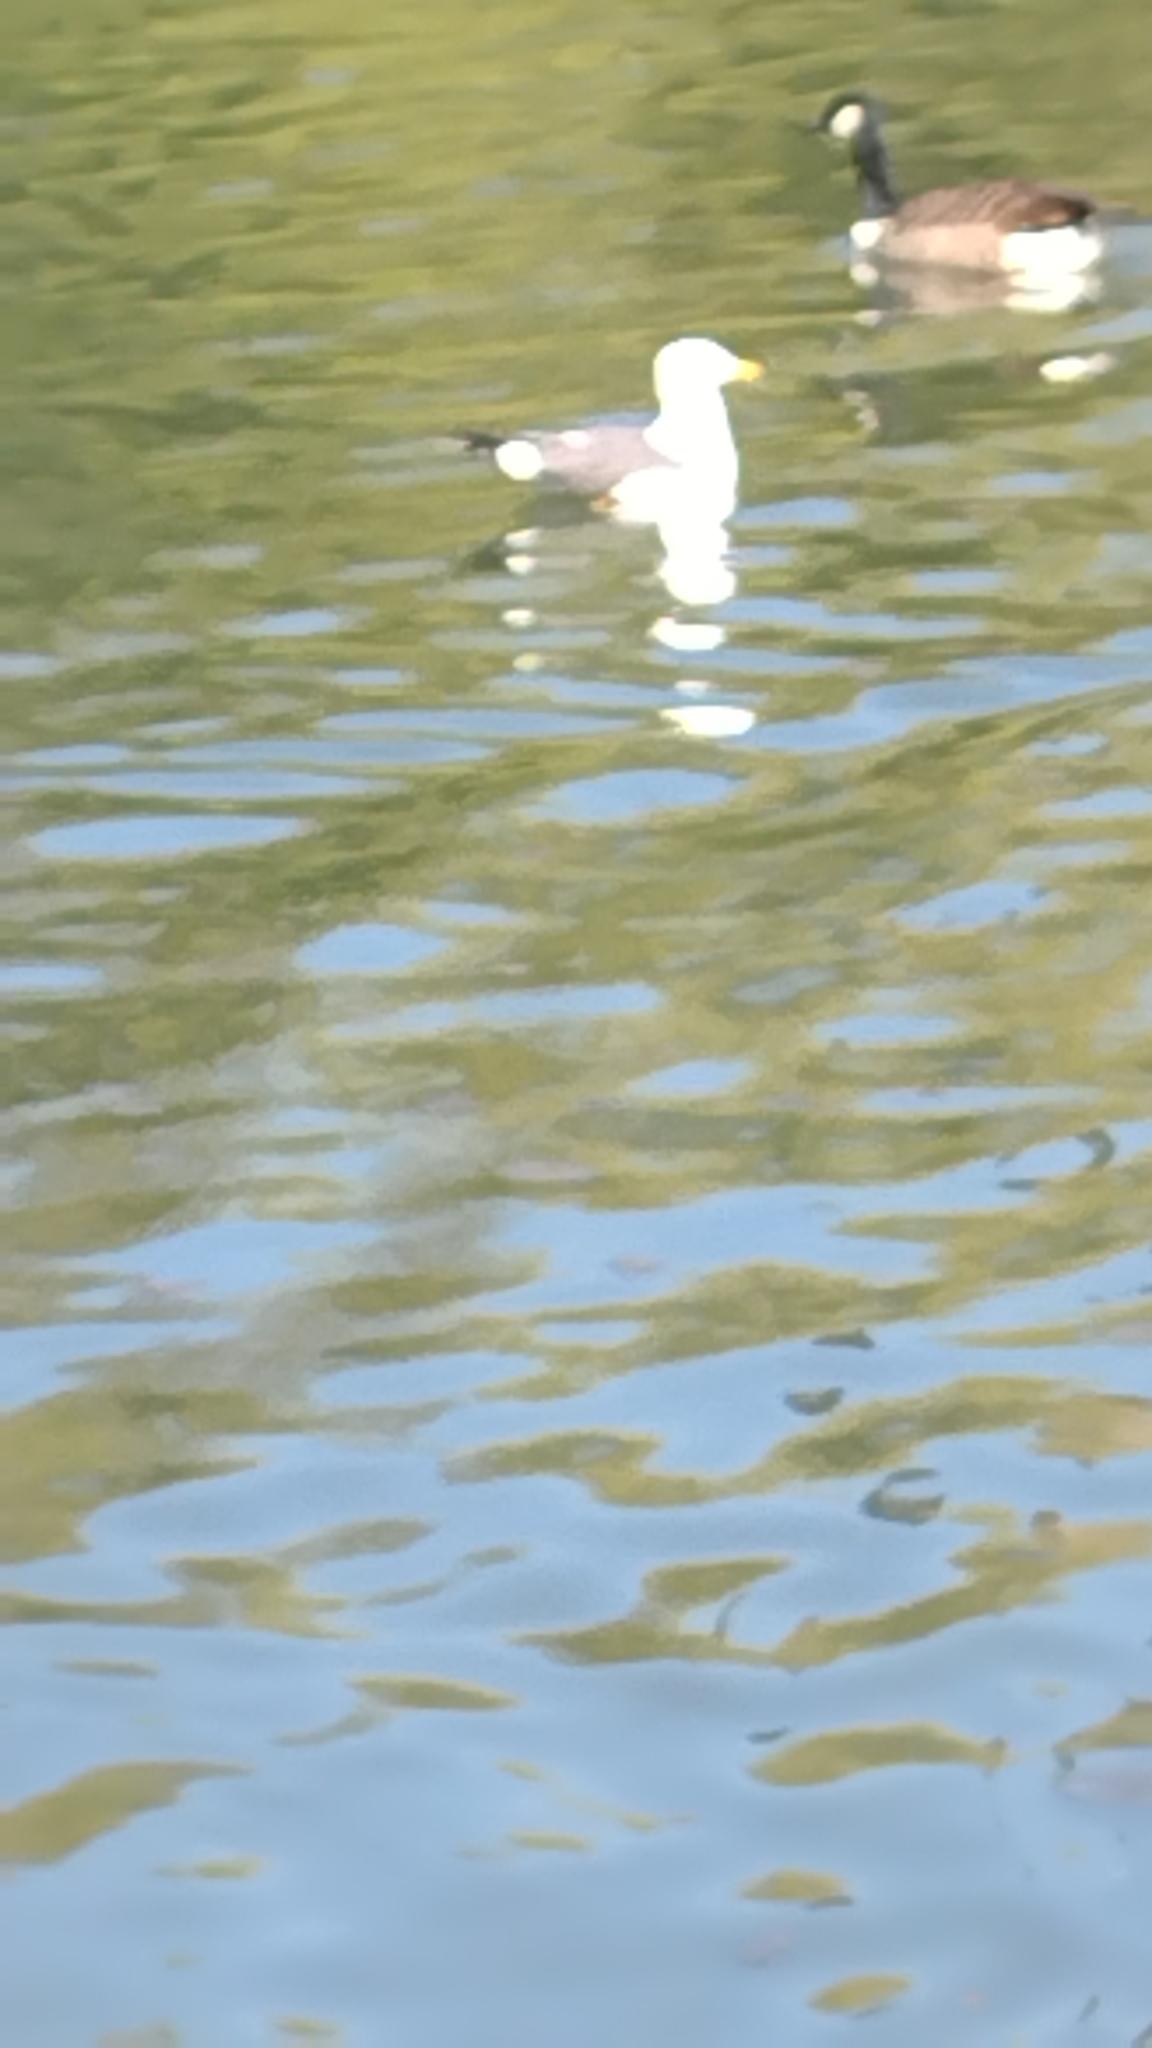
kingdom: Animalia
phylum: Chordata
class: Aves
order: Charadriiformes
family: Laridae
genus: Larus
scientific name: Larus fuscus
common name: Lesser black-backed gull
